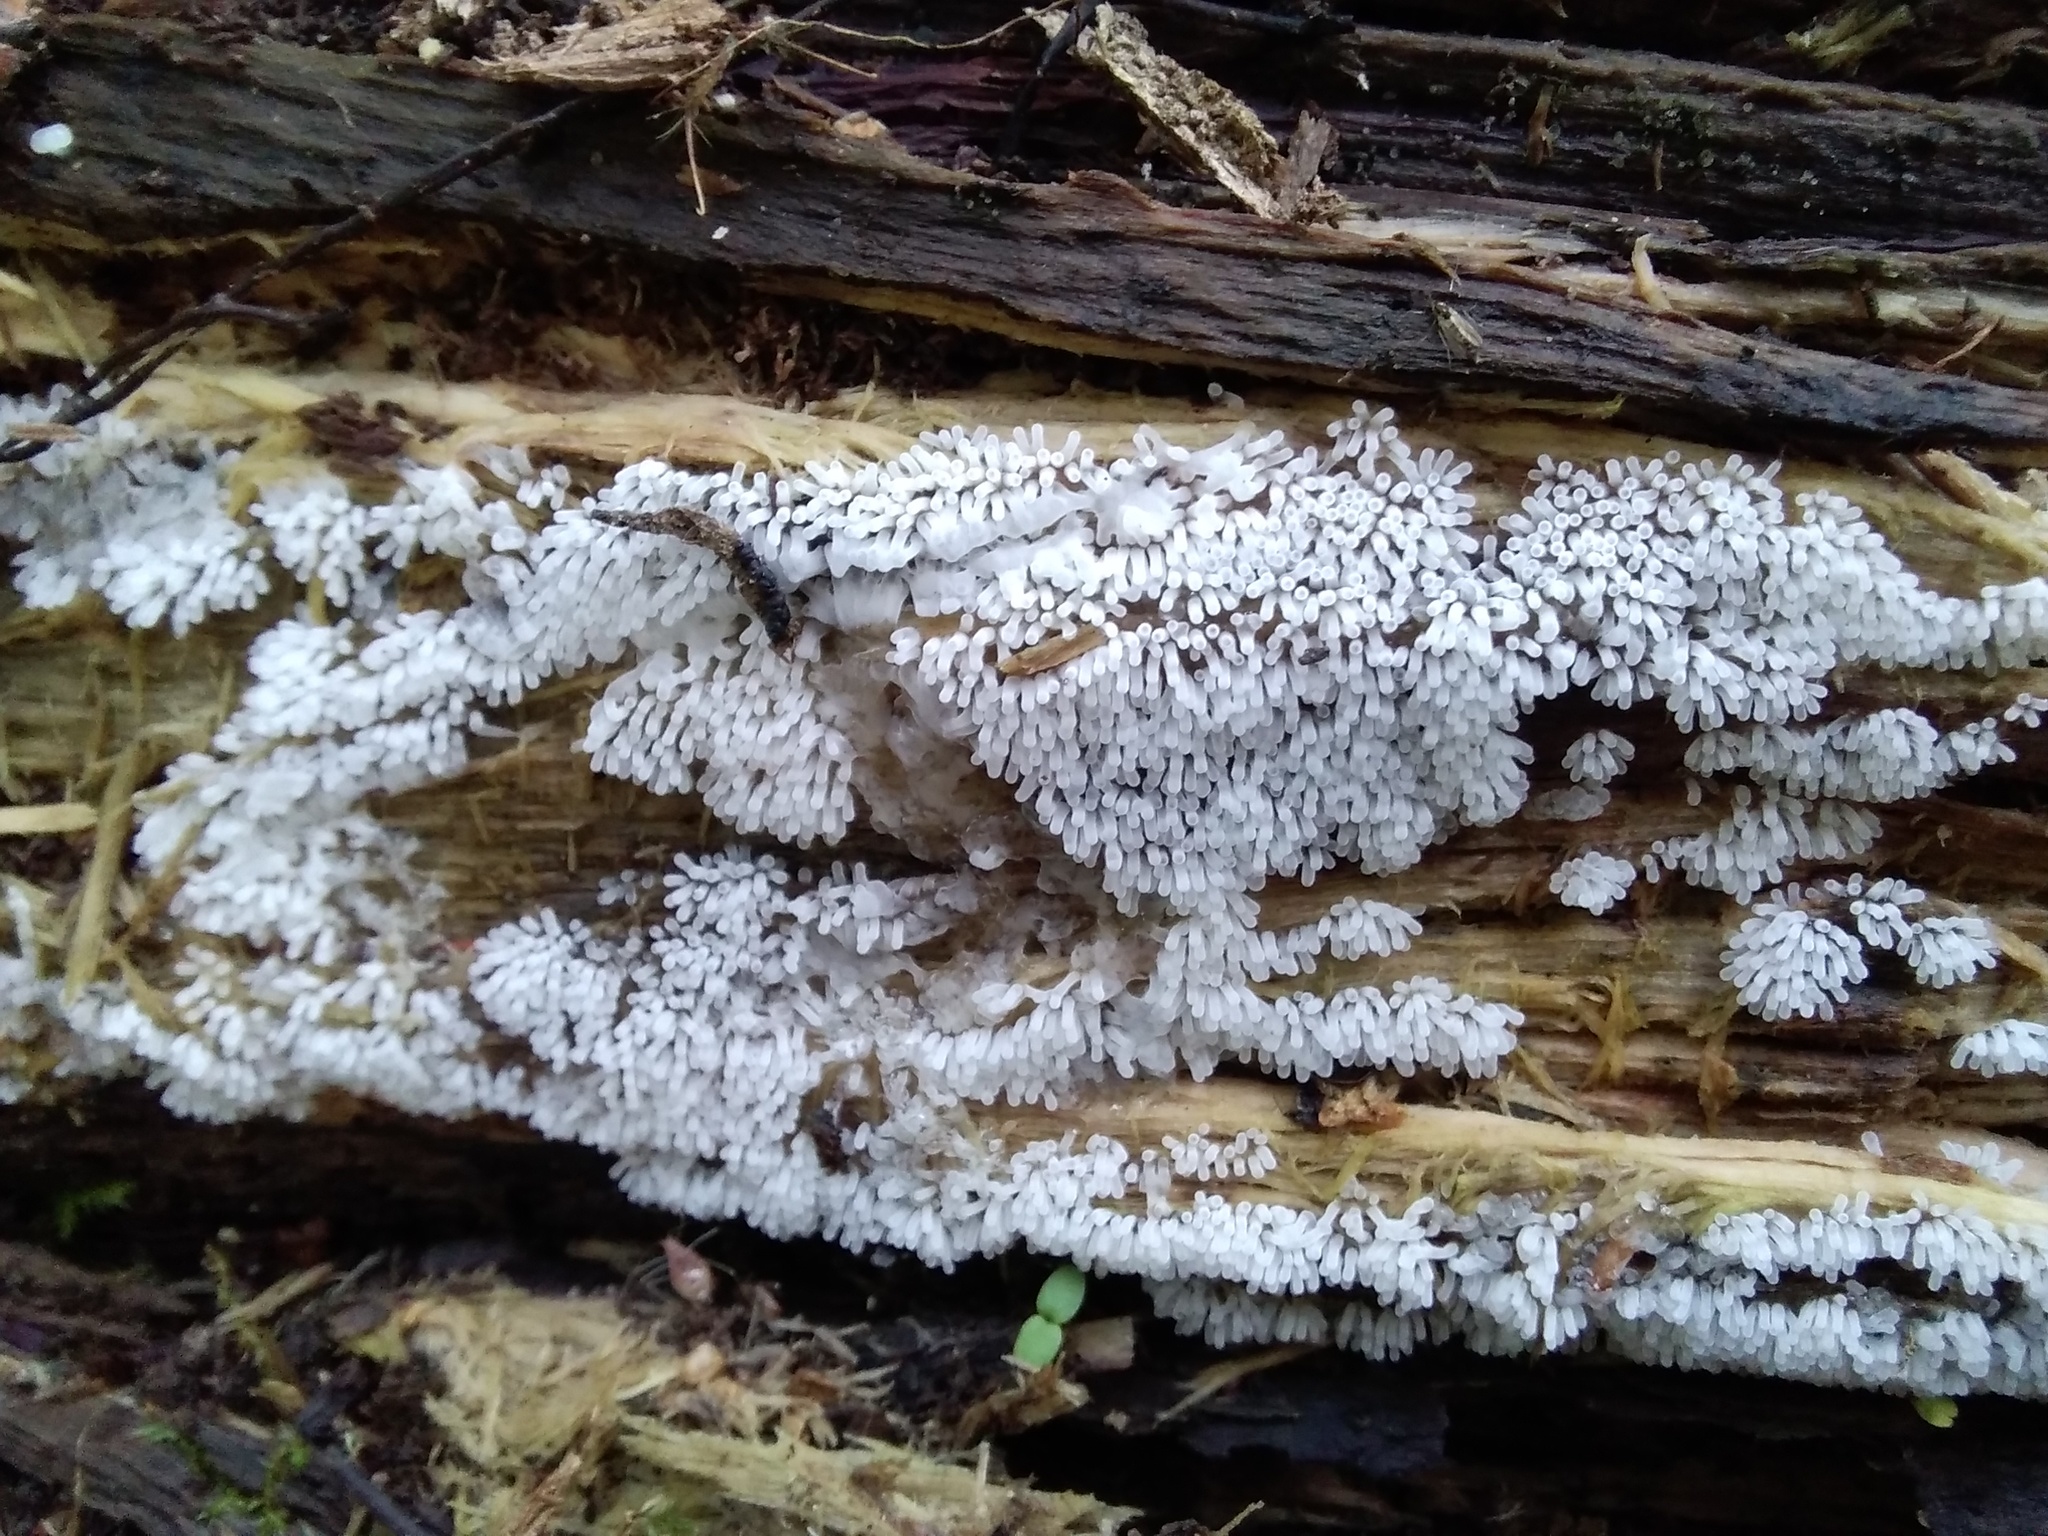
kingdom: Protozoa
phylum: Mycetozoa
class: Protosteliomycetes
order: Ceratiomyxales
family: Ceratiomyxaceae
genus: Ceratiomyxa
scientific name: Ceratiomyxa fruticulosa
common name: Honeycomb coral slime mold
